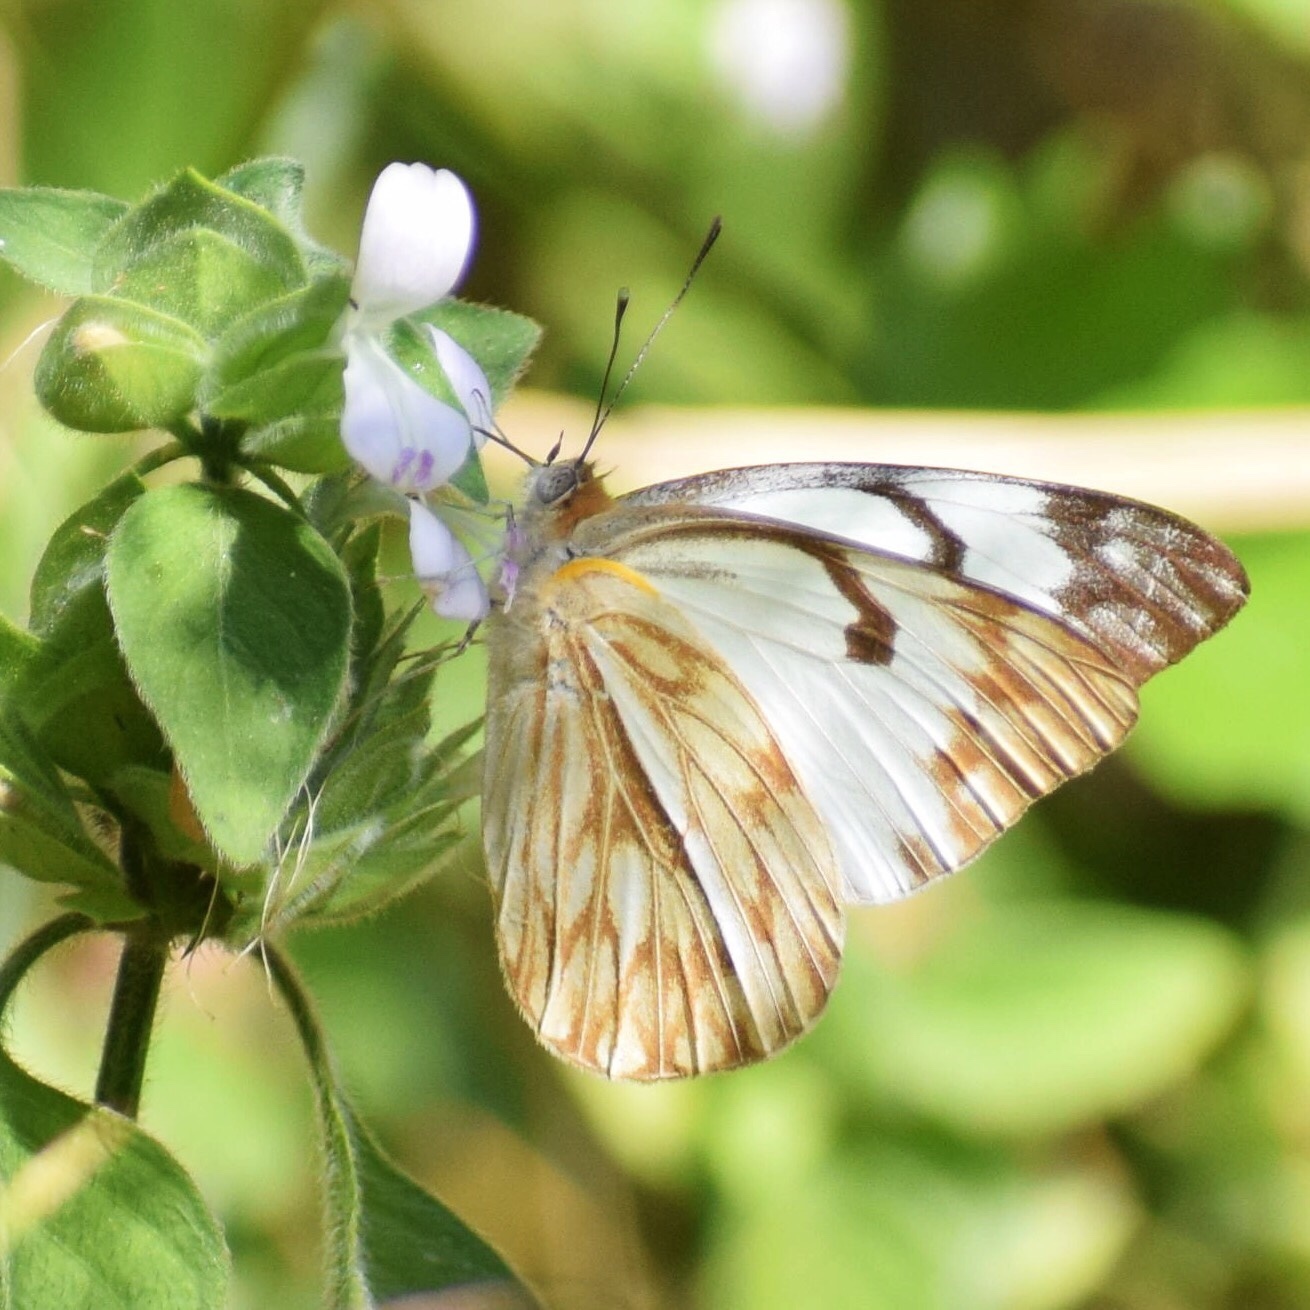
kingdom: Animalia
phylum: Arthropoda
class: Insecta
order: Lepidoptera
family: Pieridae
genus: Belenois
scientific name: Belenois gidica
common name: Pointed caper white
